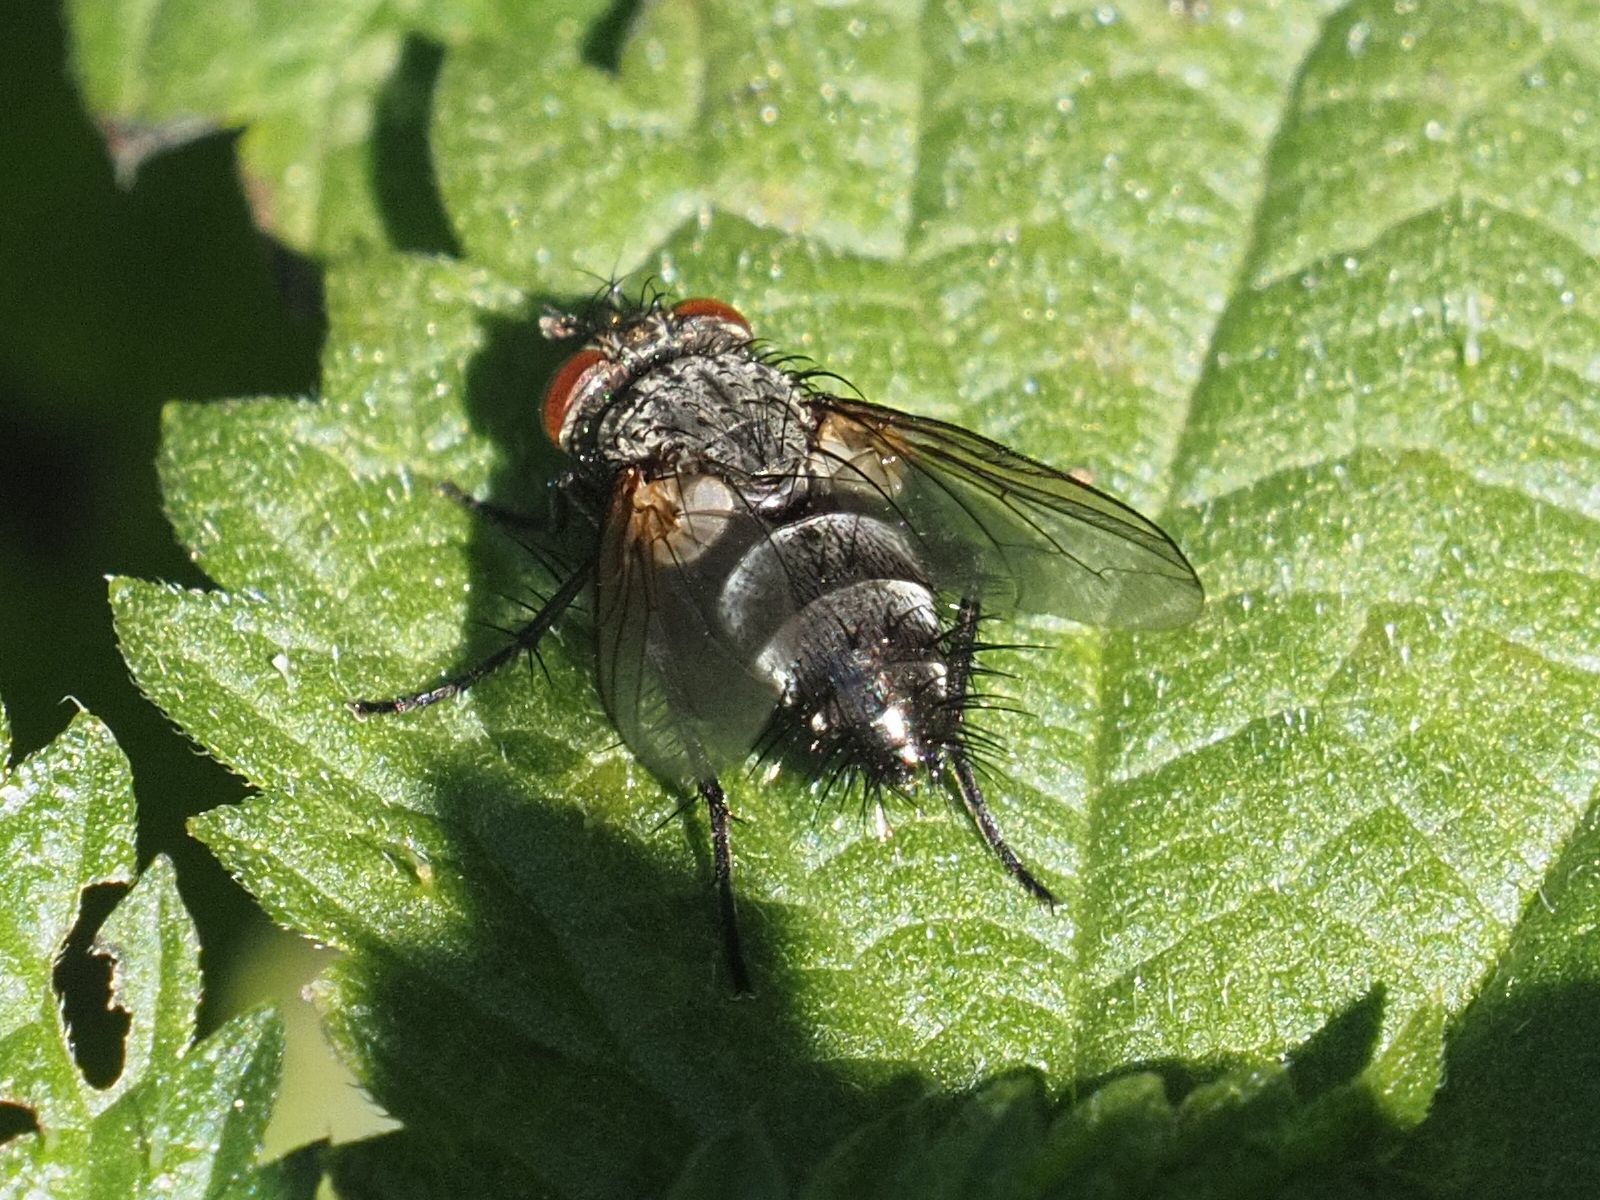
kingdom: Animalia
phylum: Arthropoda
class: Insecta
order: Diptera
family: Tachinidae
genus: Voria
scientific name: Voria ruralis
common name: Parasitic fly
